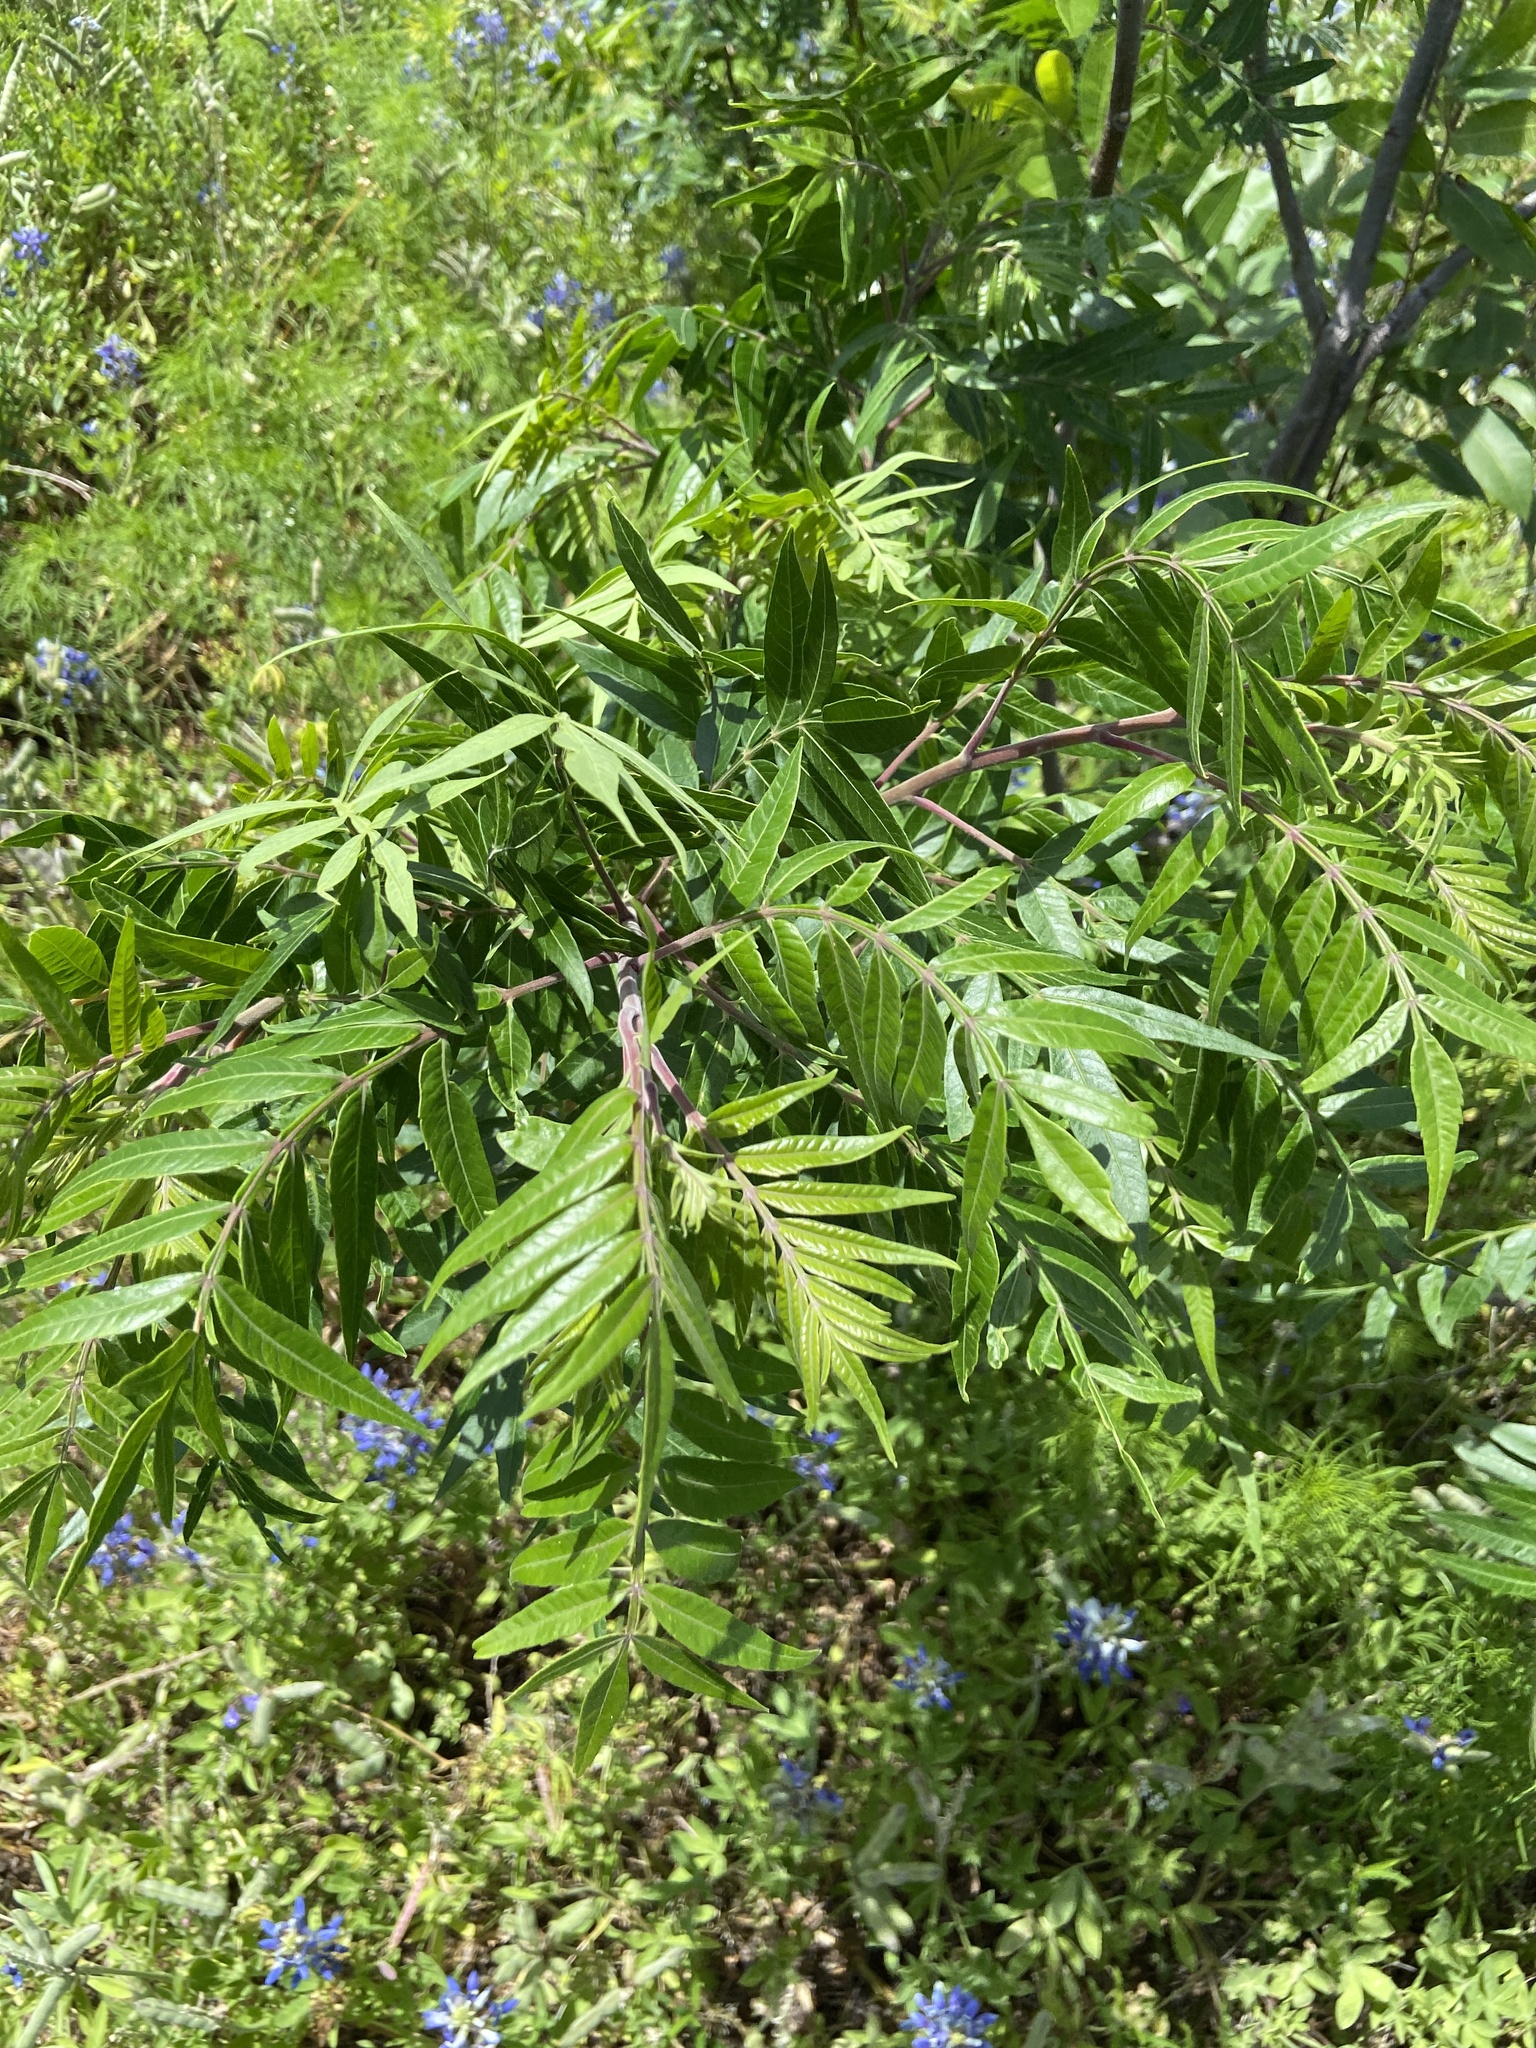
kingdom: Plantae
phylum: Tracheophyta
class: Magnoliopsida
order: Sapindales
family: Anacardiaceae
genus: Rhus
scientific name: Rhus lanceolata
